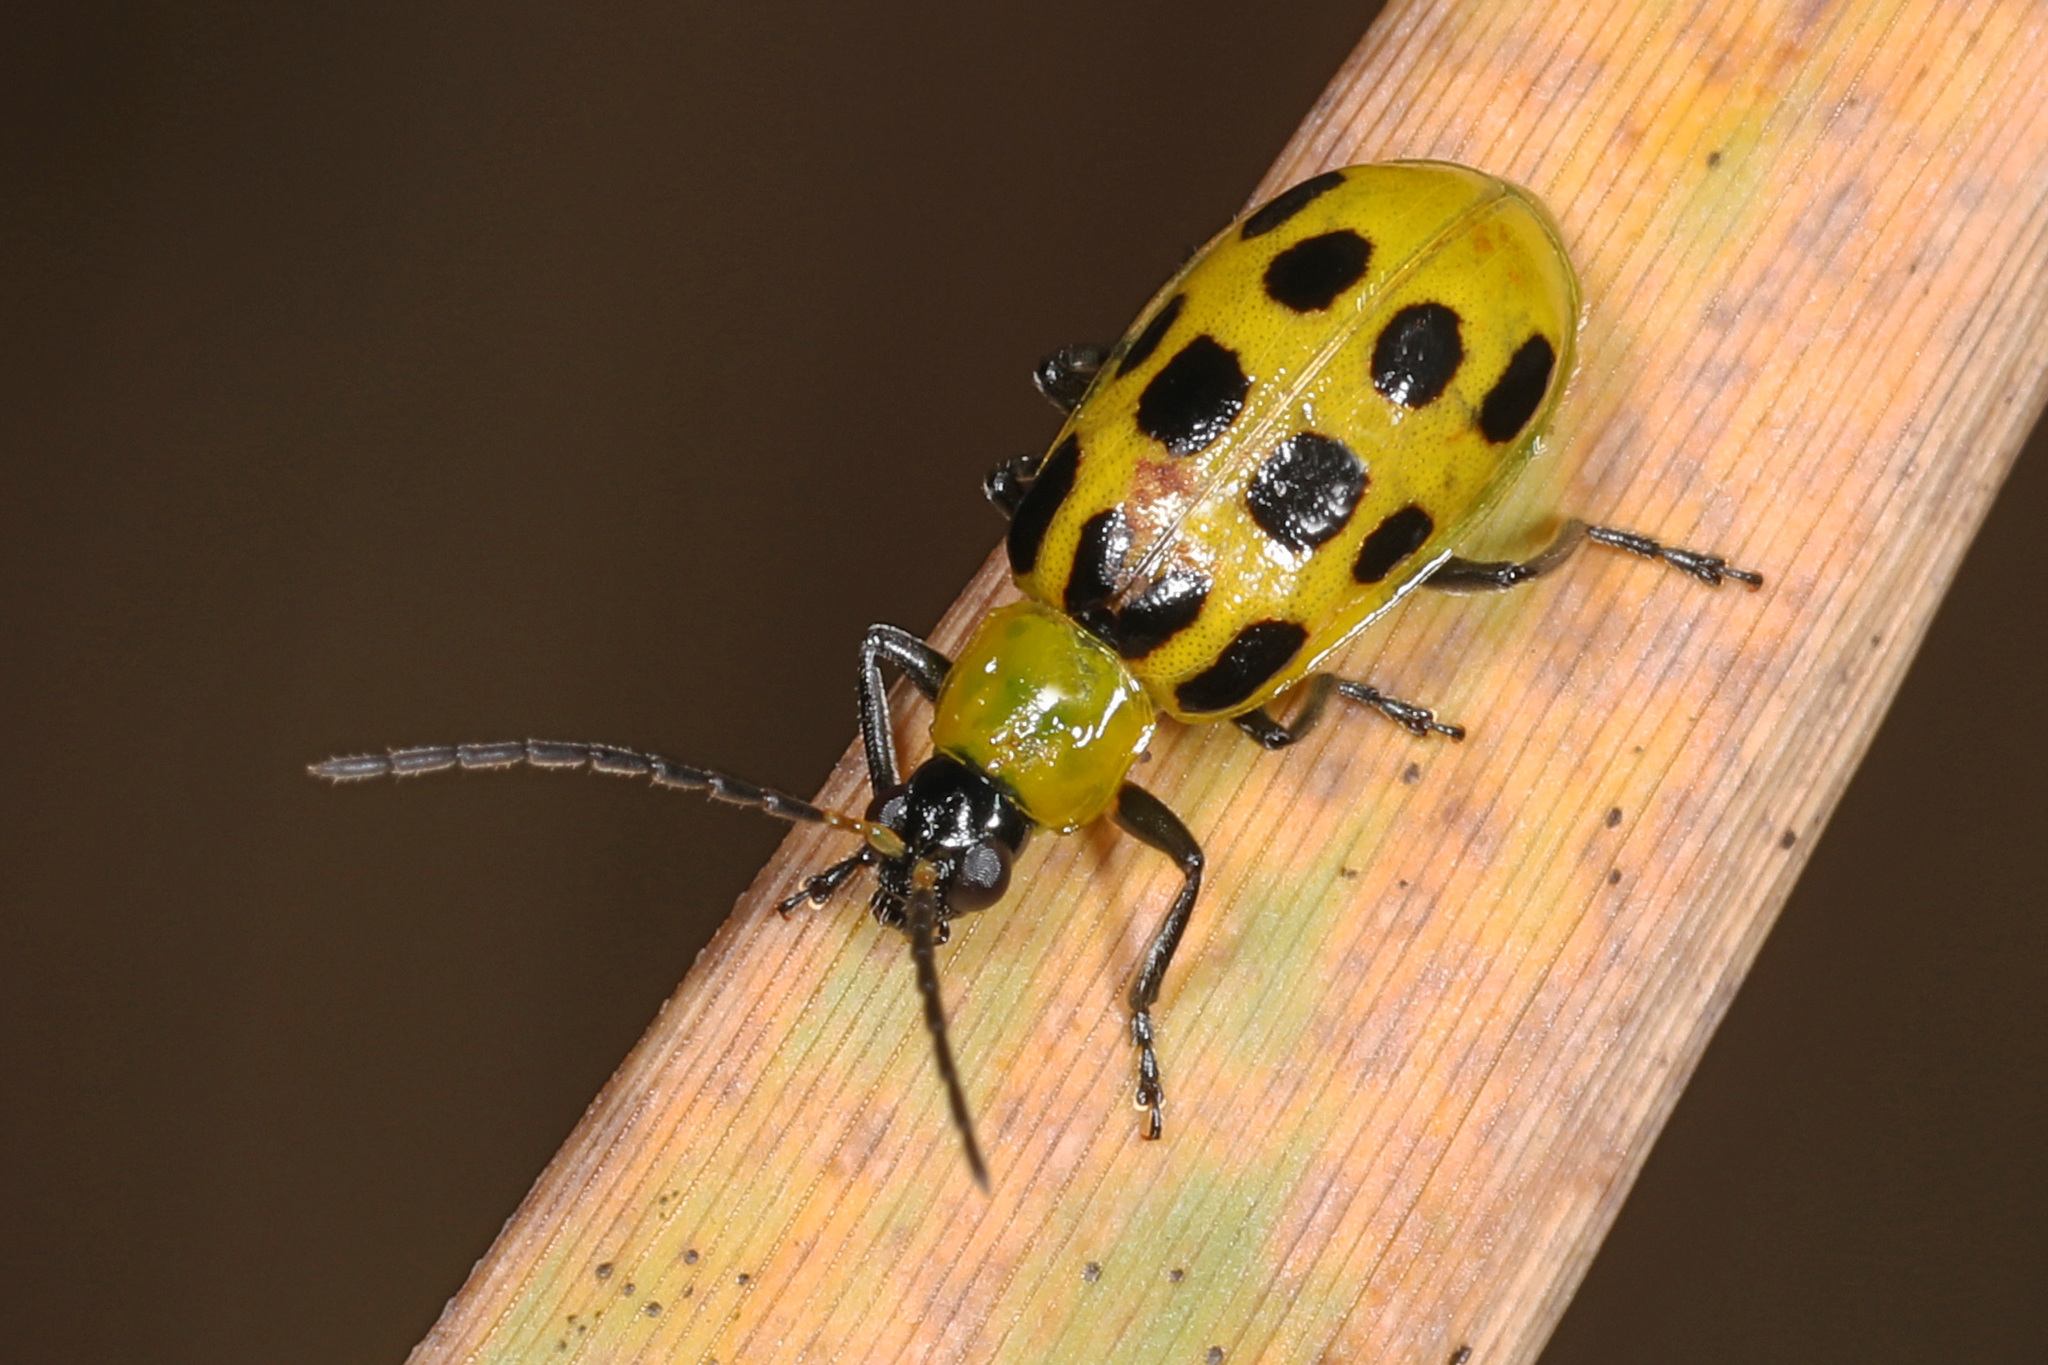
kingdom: Animalia
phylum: Arthropoda
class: Insecta
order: Coleoptera
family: Chrysomelidae
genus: Diabrotica
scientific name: Diabrotica undecimpunctata
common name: Spotted cucumber beetle
